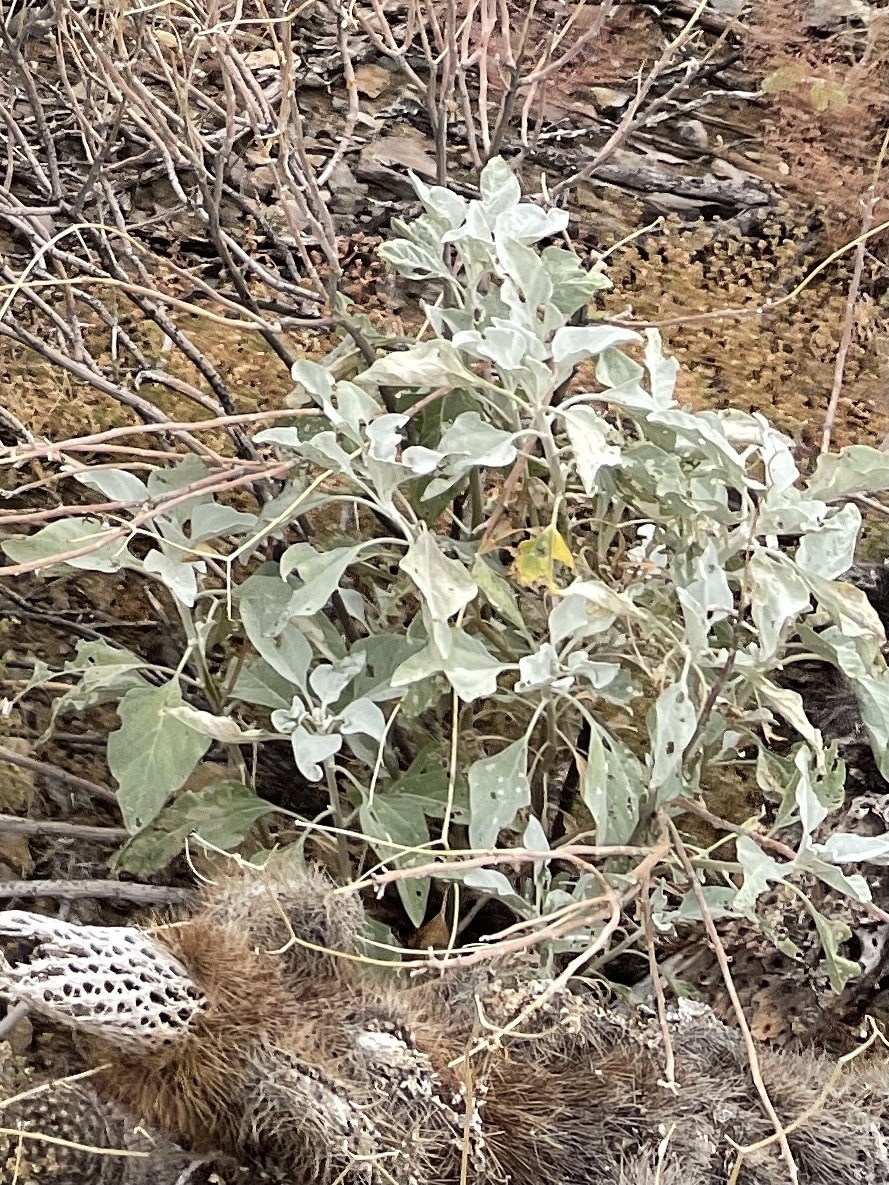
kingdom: Plantae
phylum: Tracheophyta
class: Magnoliopsida
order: Asterales
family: Asteraceae
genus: Encelia
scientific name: Encelia farinosa
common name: Brittlebush
